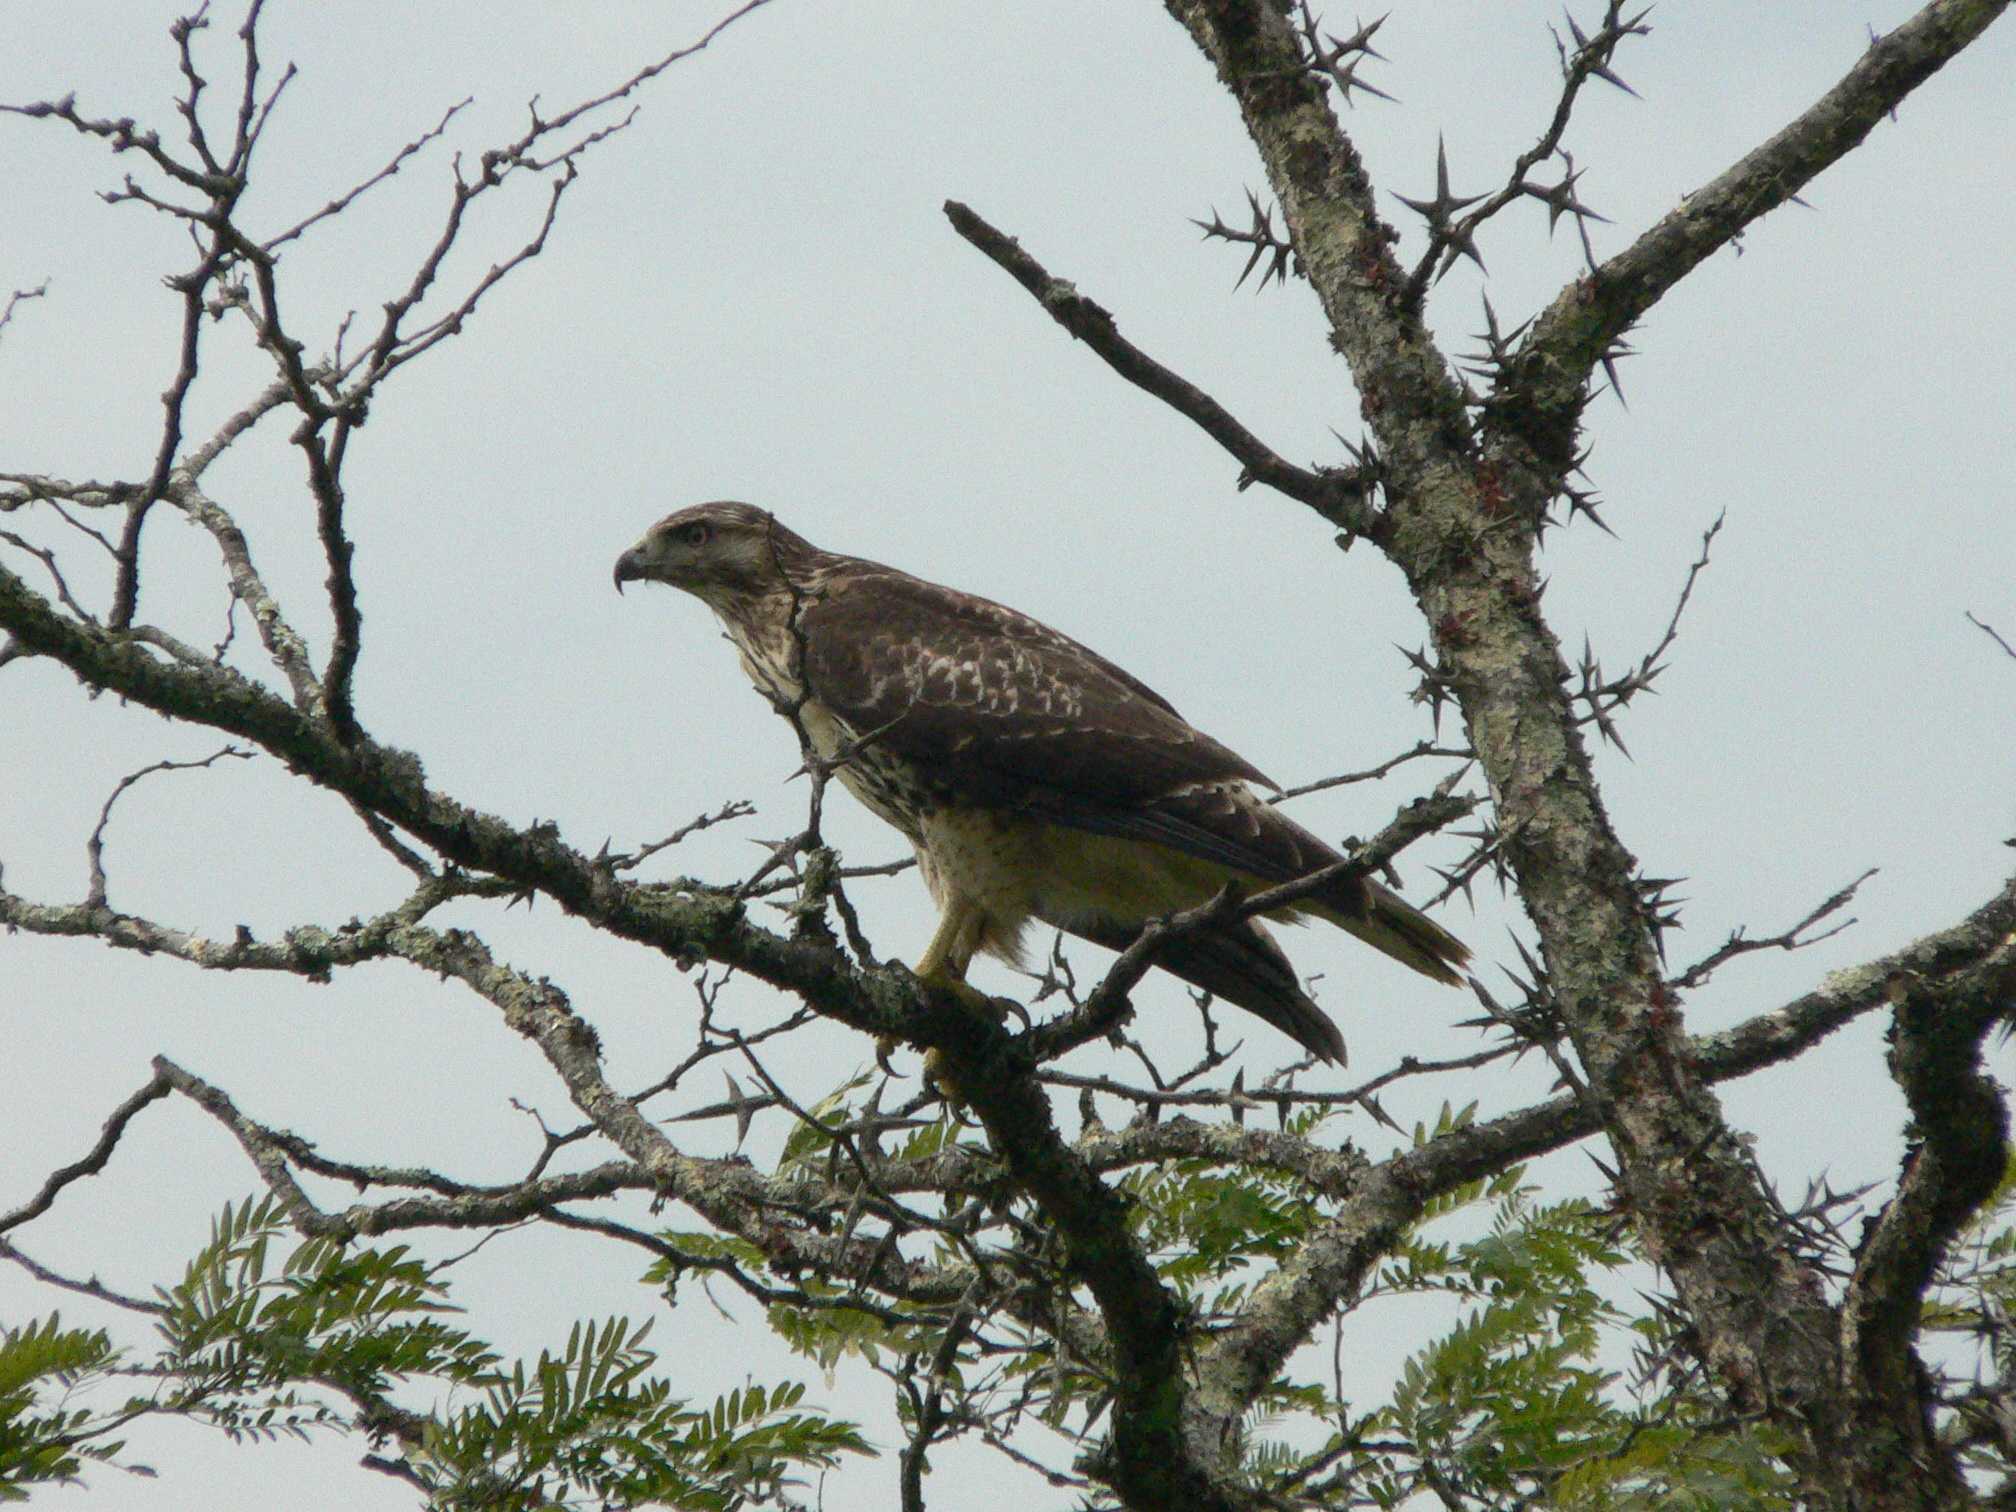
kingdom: Animalia
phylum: Chordata
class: Aves
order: Accipitriformes
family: Accipitridae
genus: Buteo
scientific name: Buteo jamaicensis
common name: Red-tailed hawk
